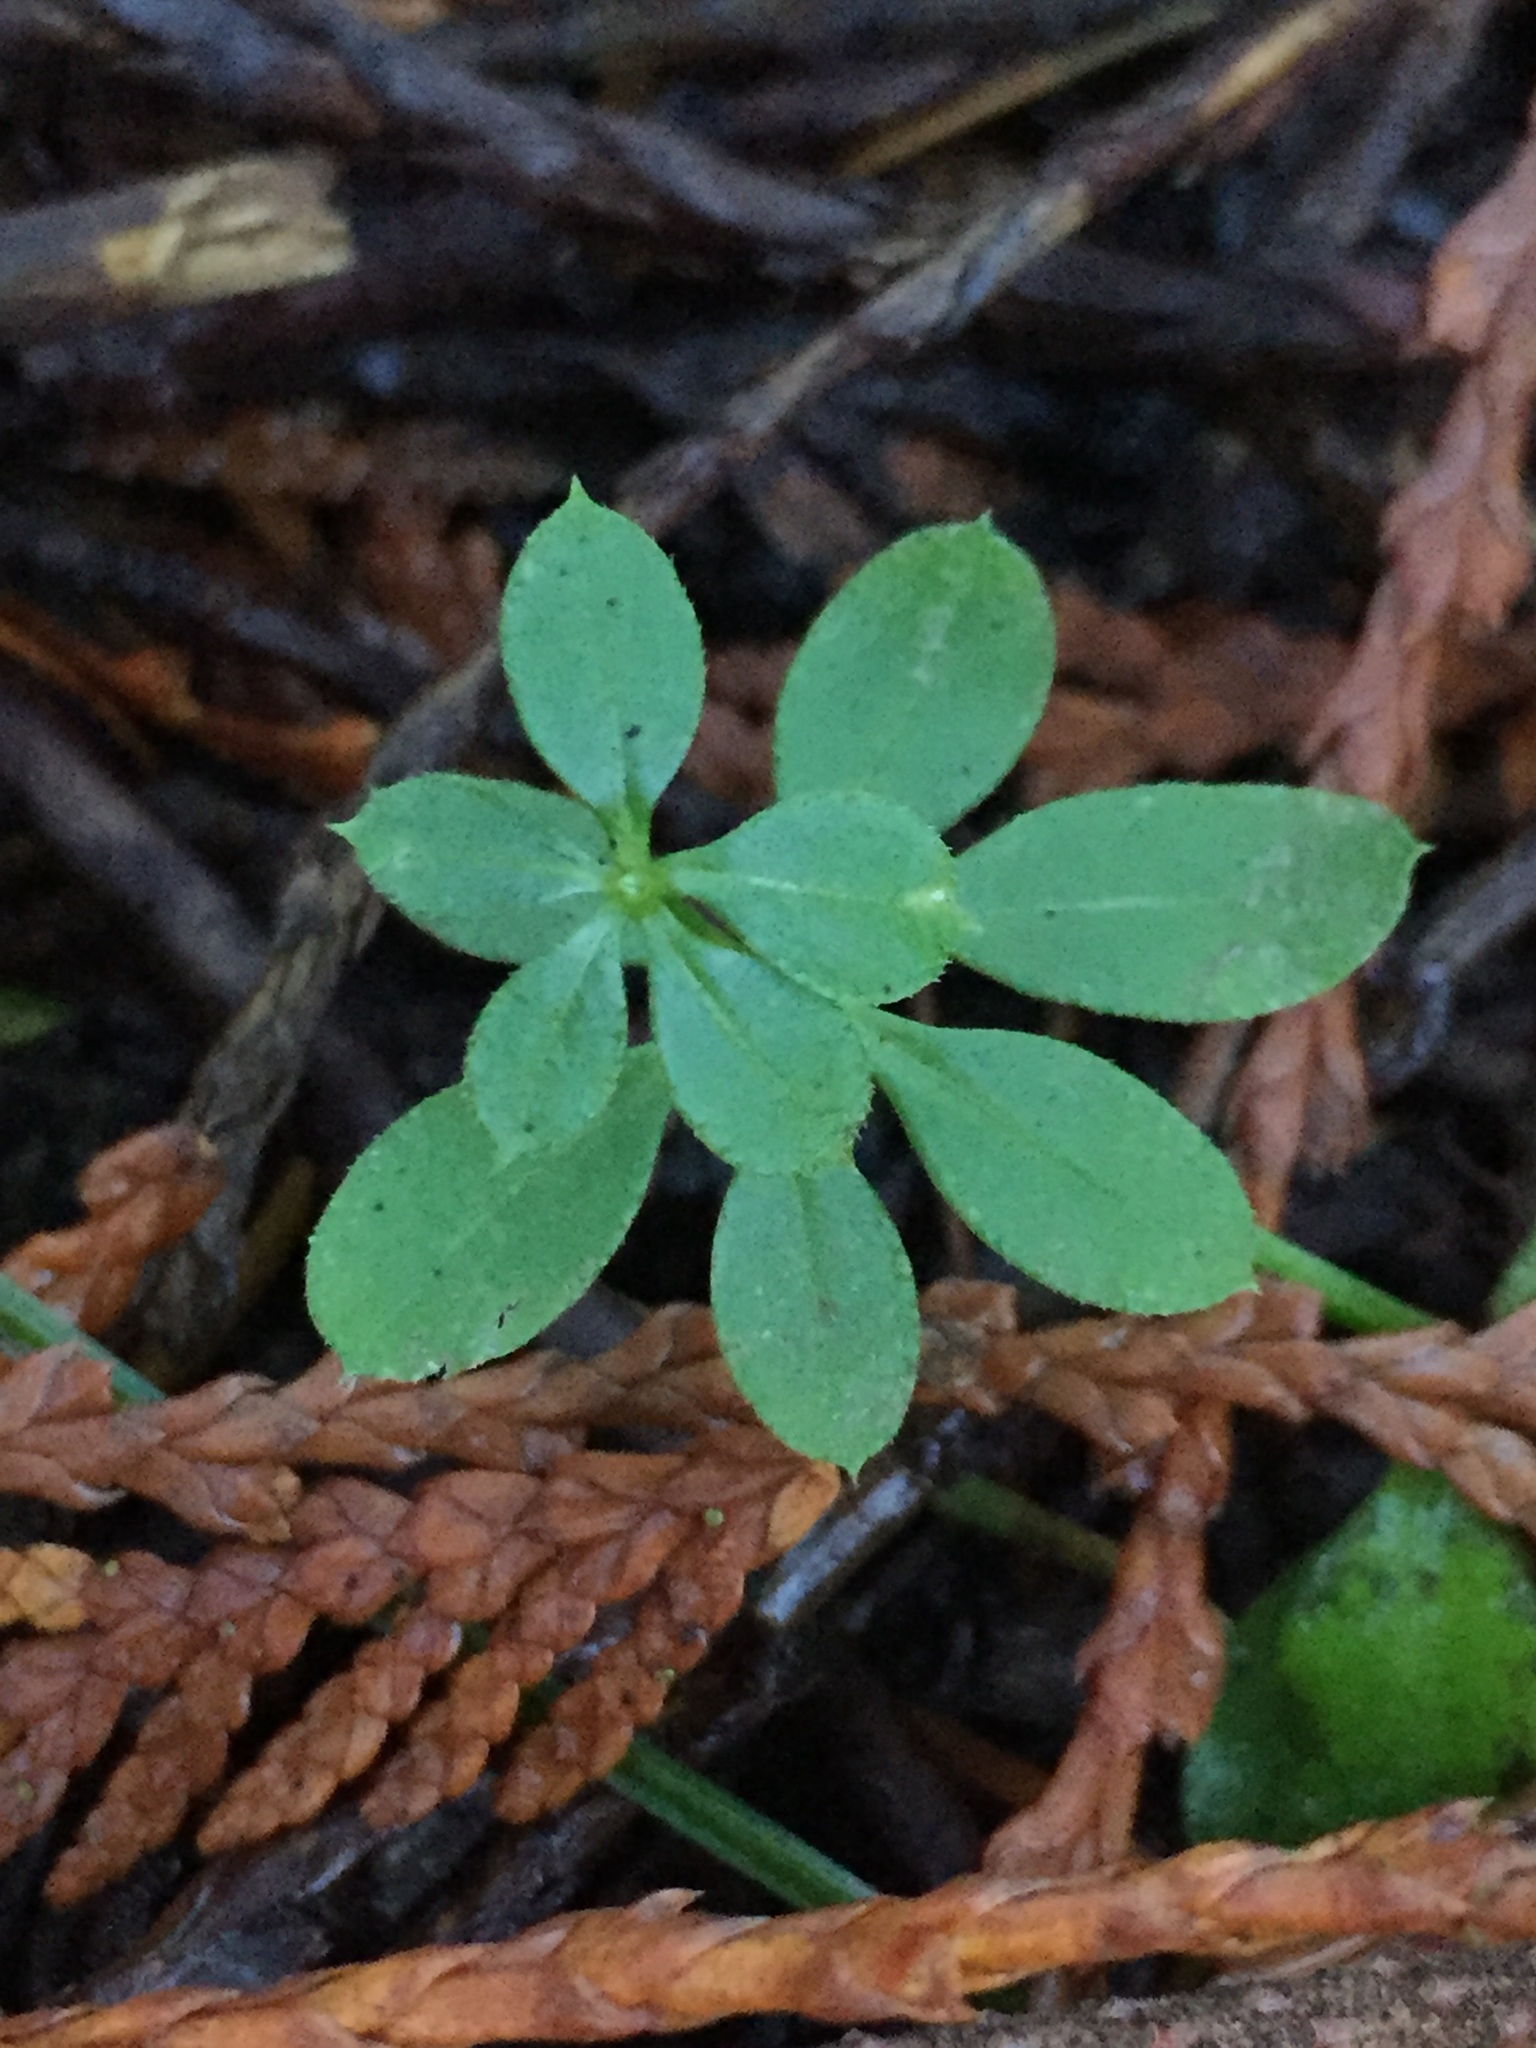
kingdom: Plantae
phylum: Tracheophyta
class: Magnoliopsida
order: Gentianales
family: Rubiaceae
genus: Galium
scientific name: Galium triflorum
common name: Fragrant bedstraw
